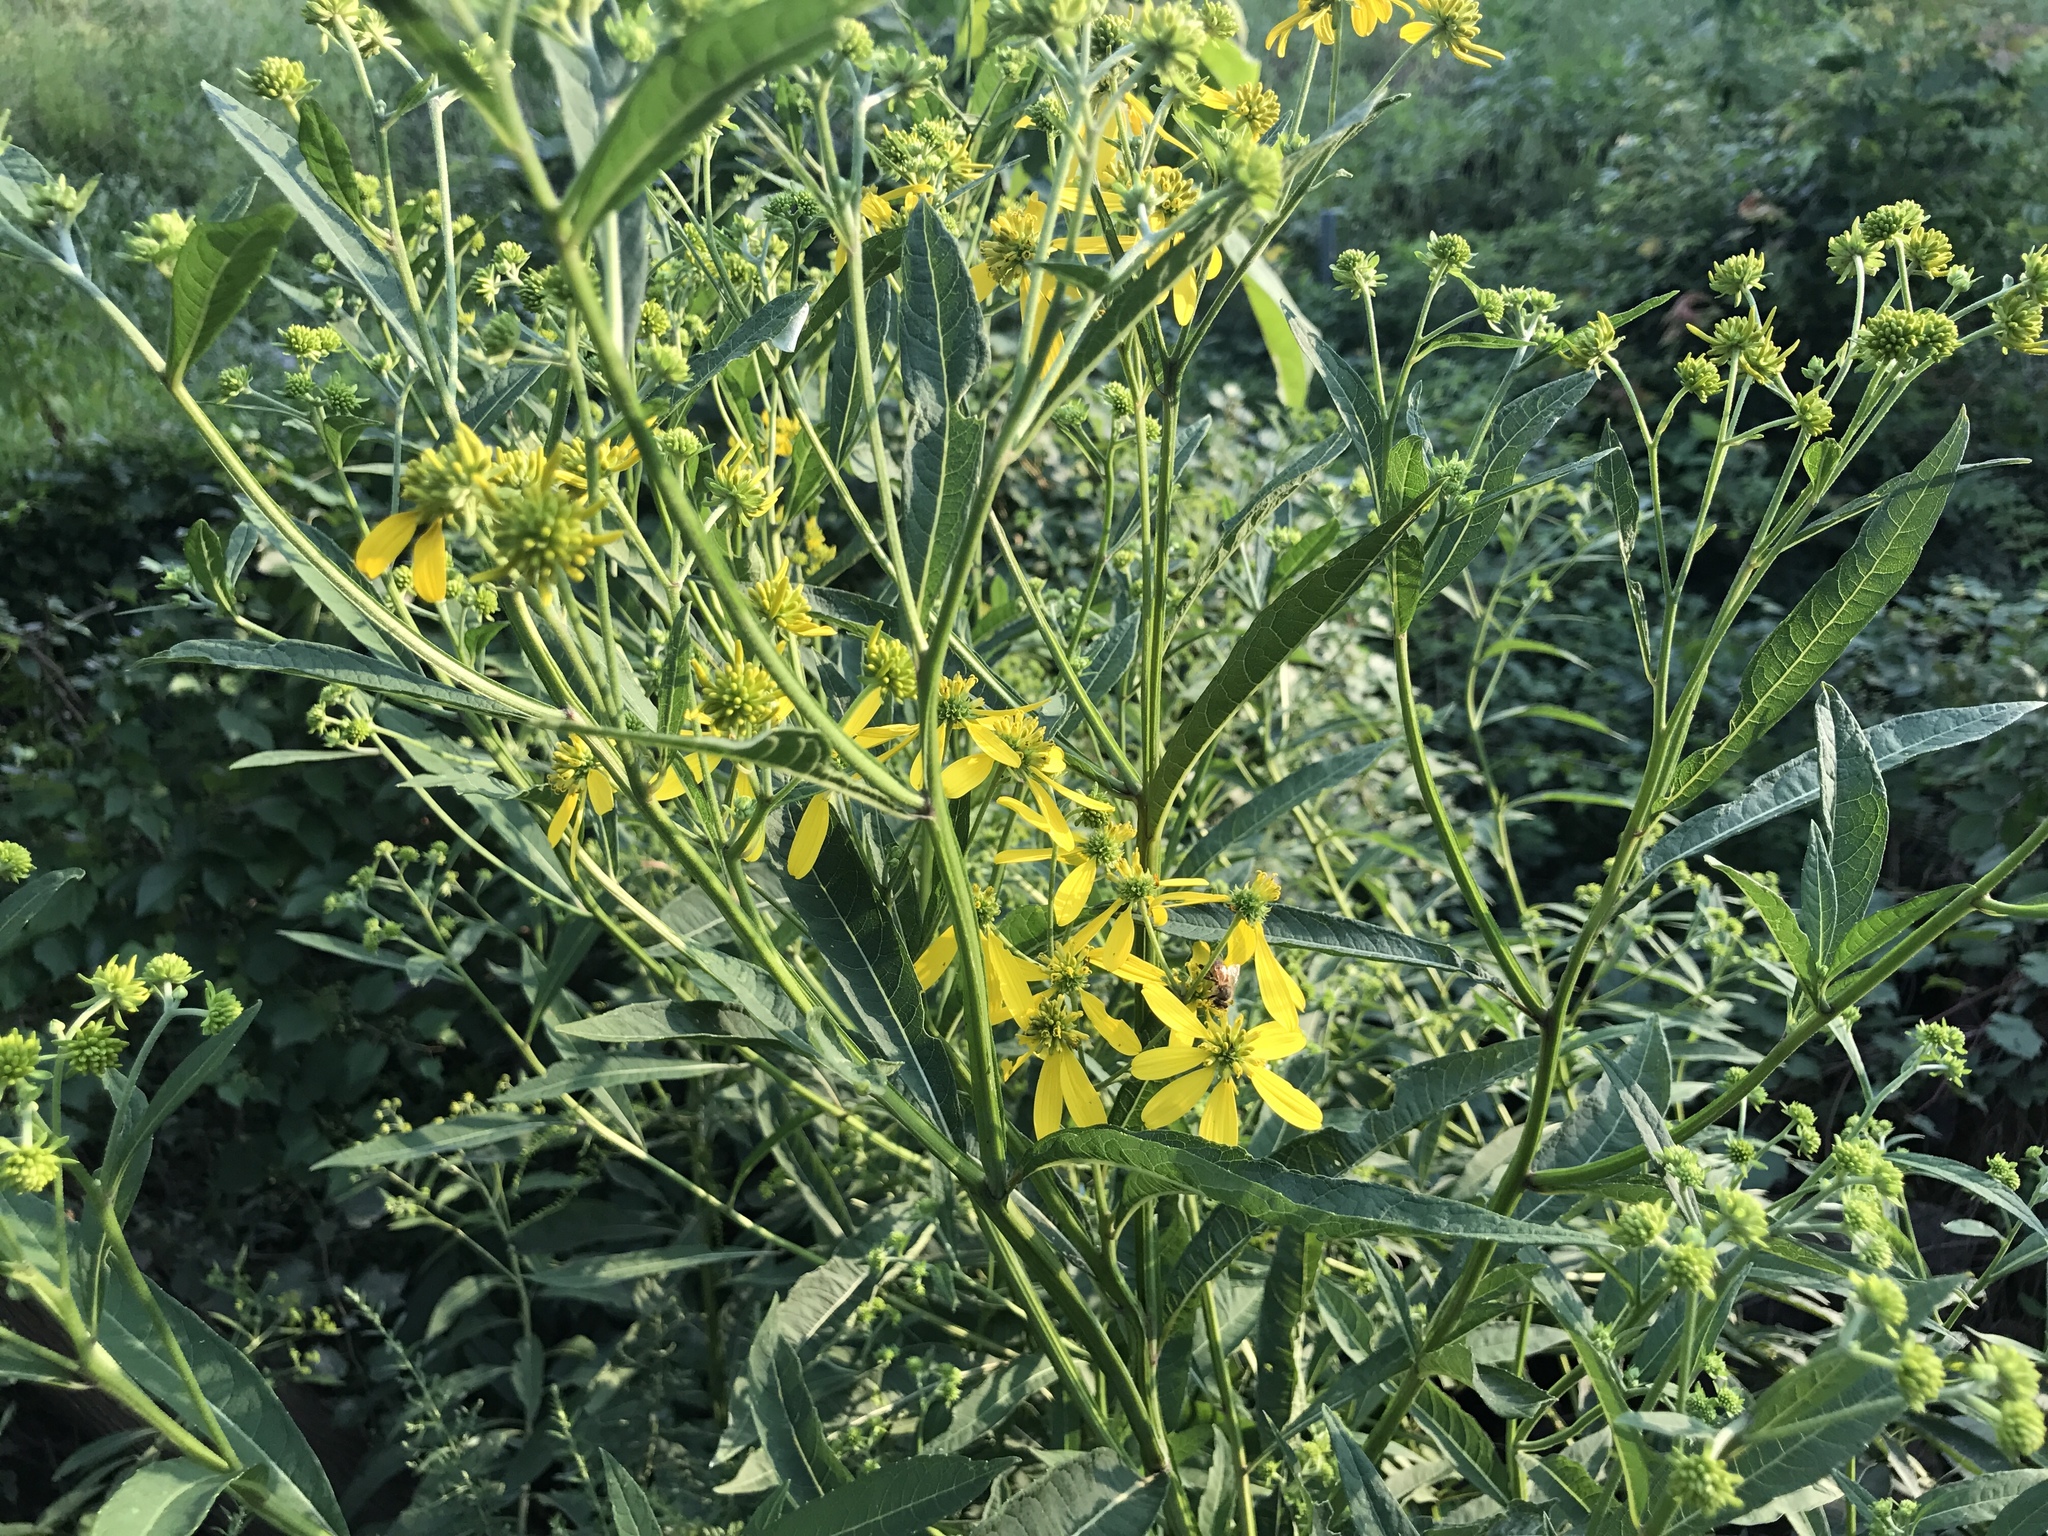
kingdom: Plantae
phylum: Tracheophyta
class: Magnoliopsida
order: Asterales
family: Asteraceae
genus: Verbesina
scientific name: Verbesina alternifolia
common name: Wingstem
